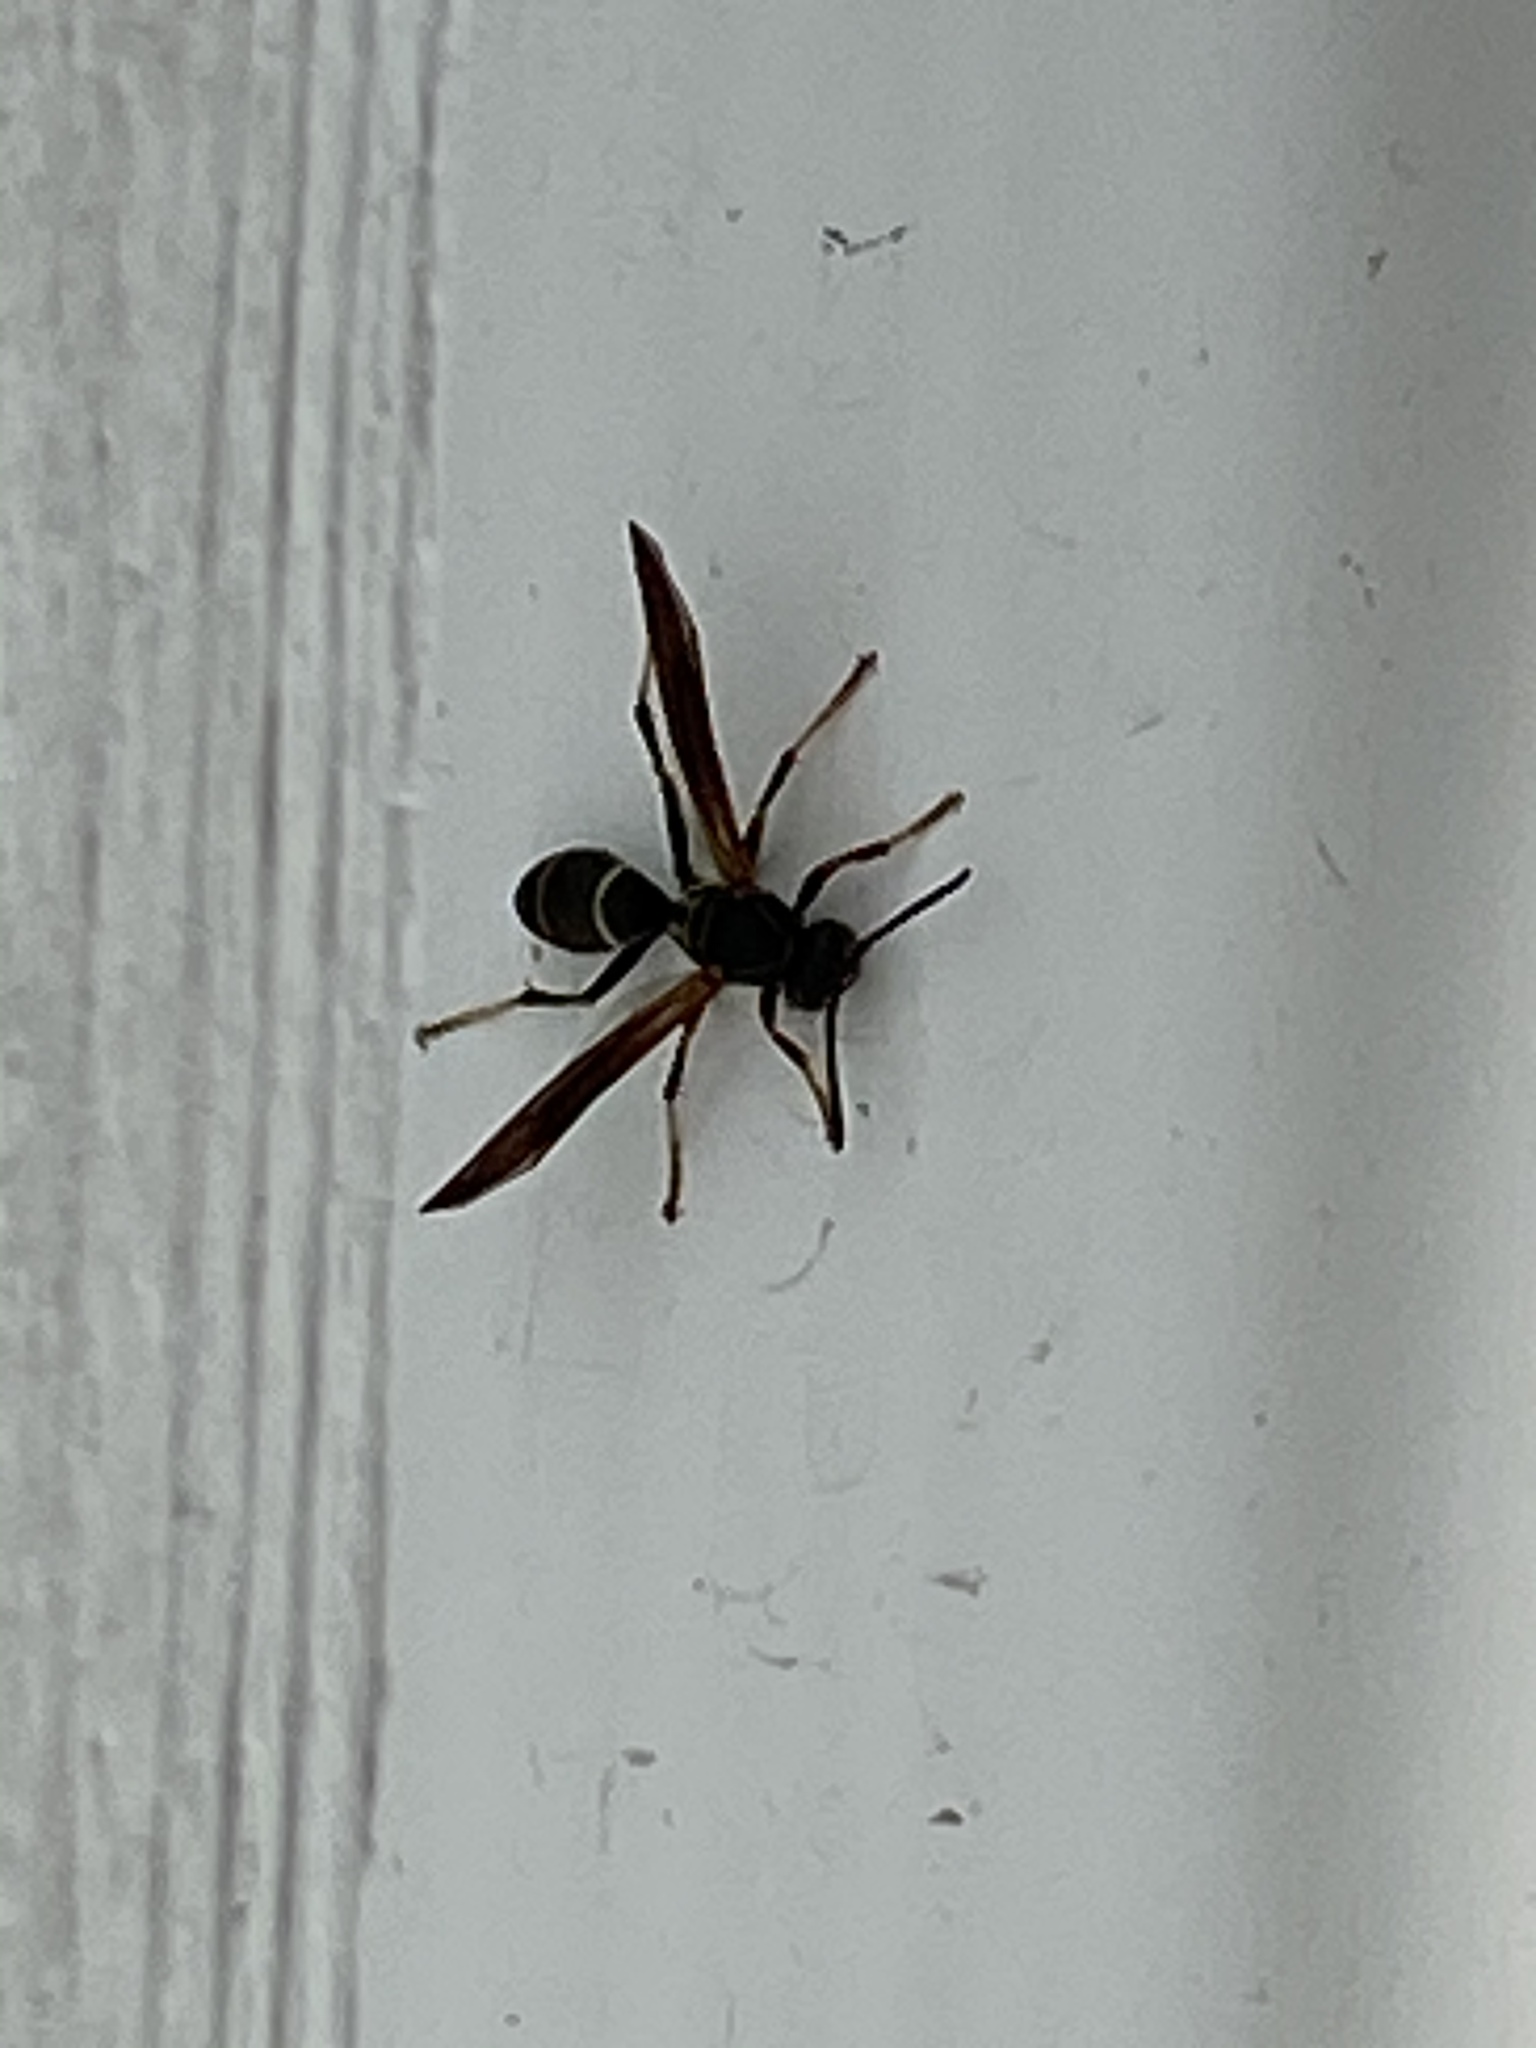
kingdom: Animalia
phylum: Arthropoda
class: Insecta
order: Hymenoptera
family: Eumenidae
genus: Polistes
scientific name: Polistes fuscatus
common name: Dark paper wasp
